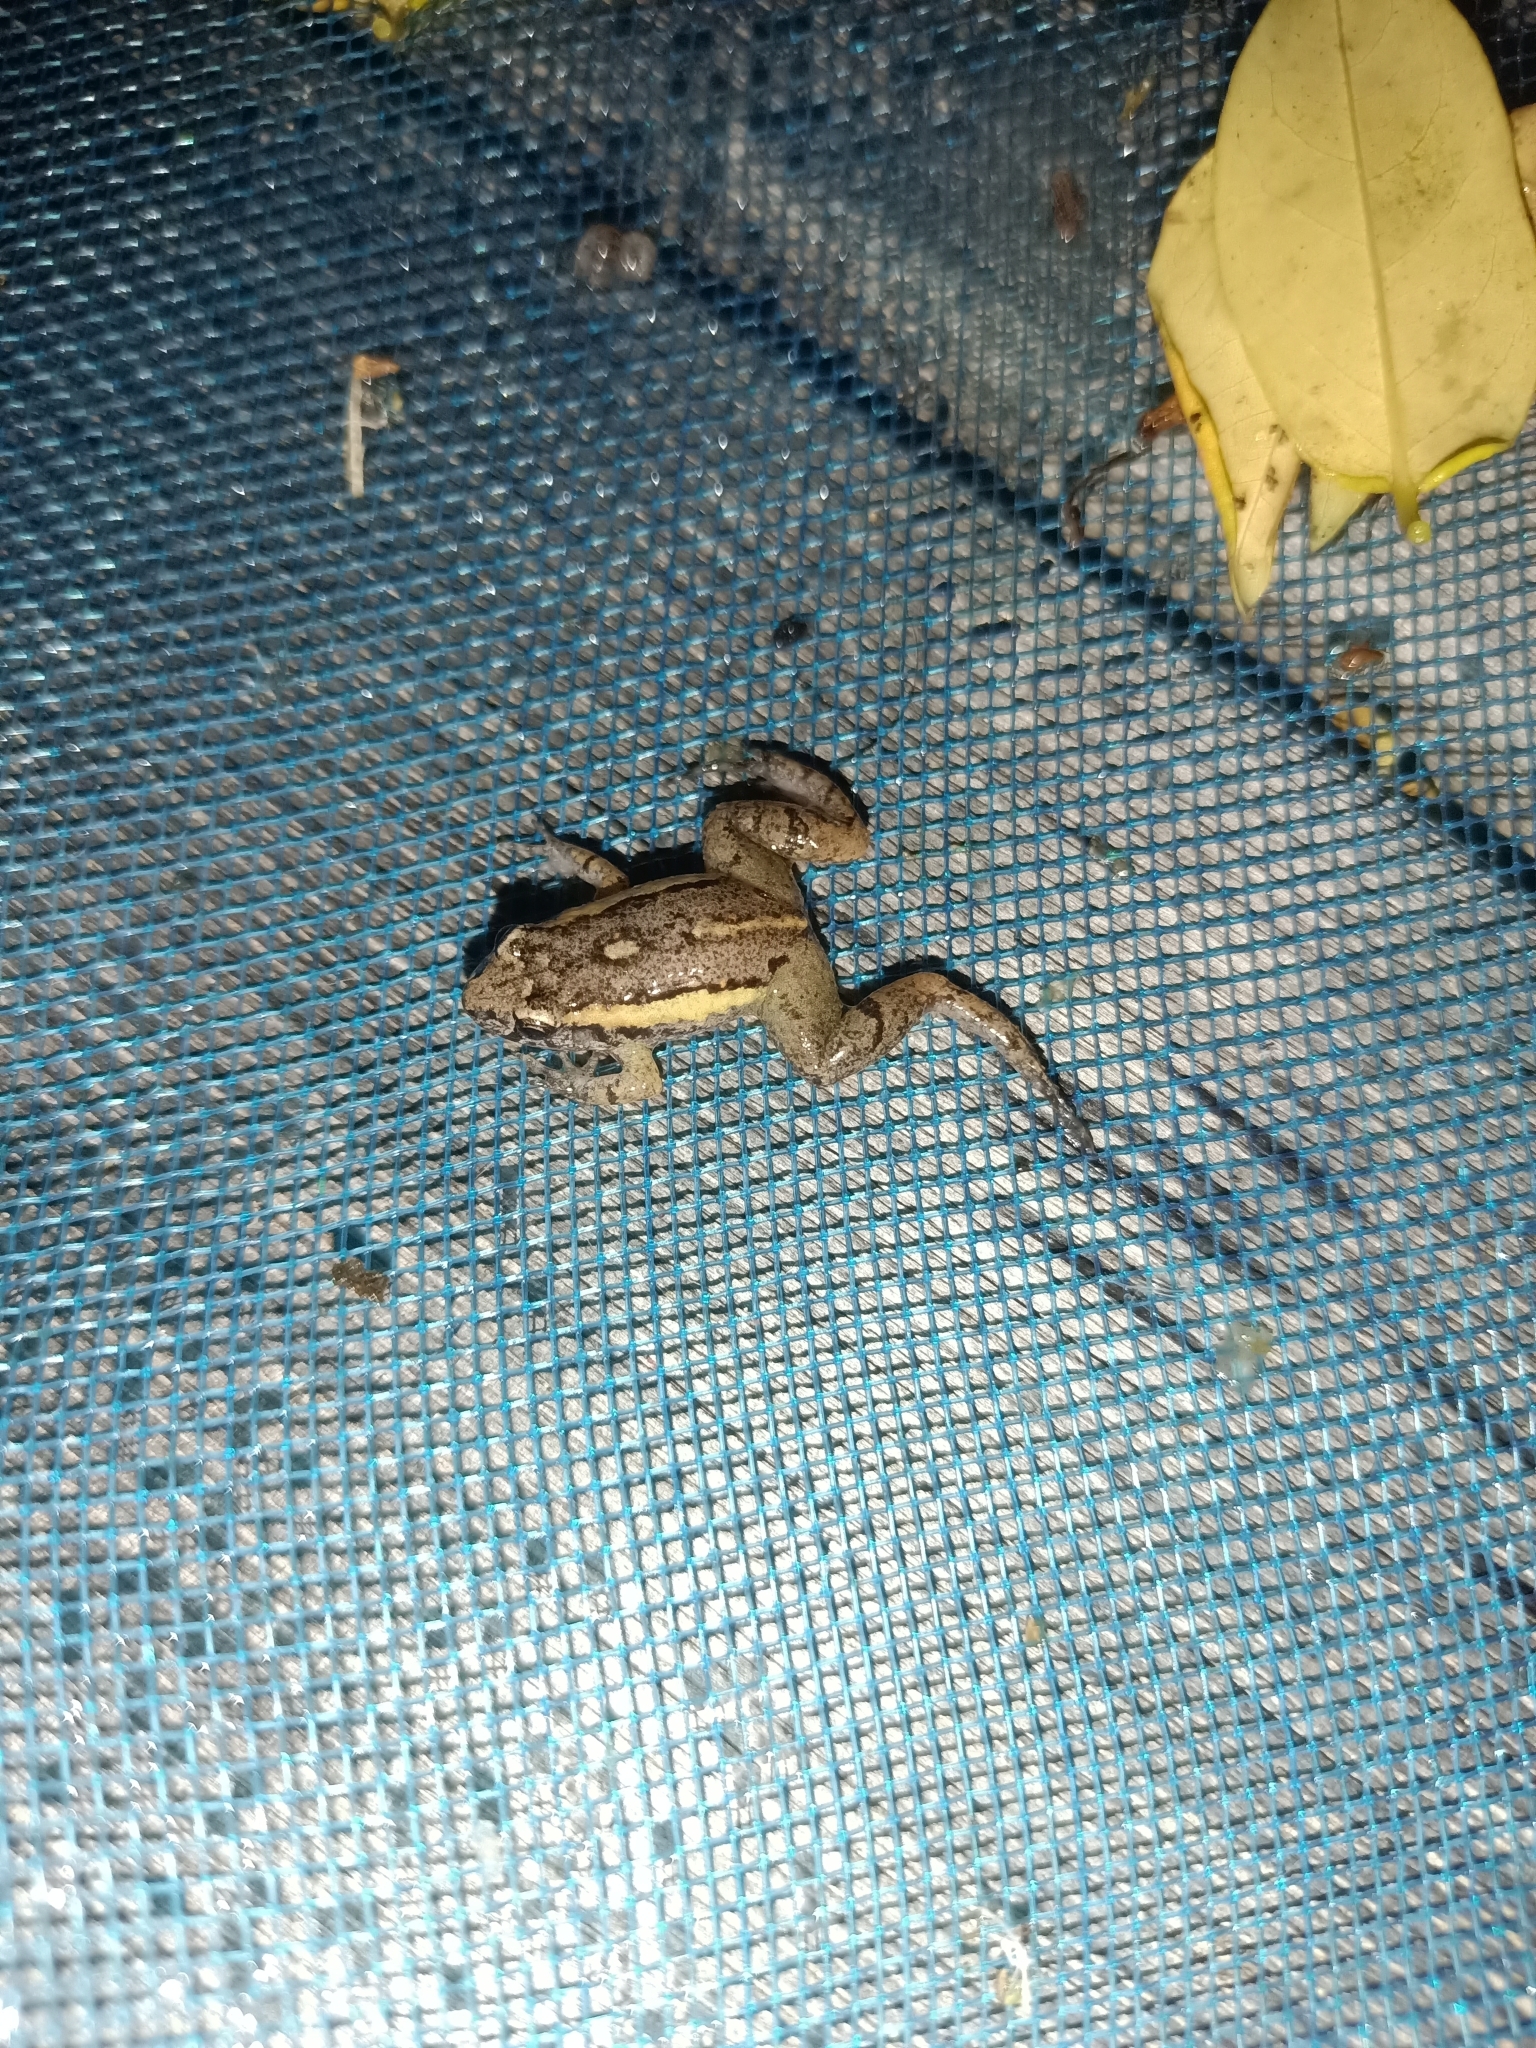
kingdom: Animalia
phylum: Chordata
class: Amphibia
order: Anura
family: Leptodactylidae
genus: Adenomera
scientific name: Adenomera andreae
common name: Lowland tropical bullfrog
